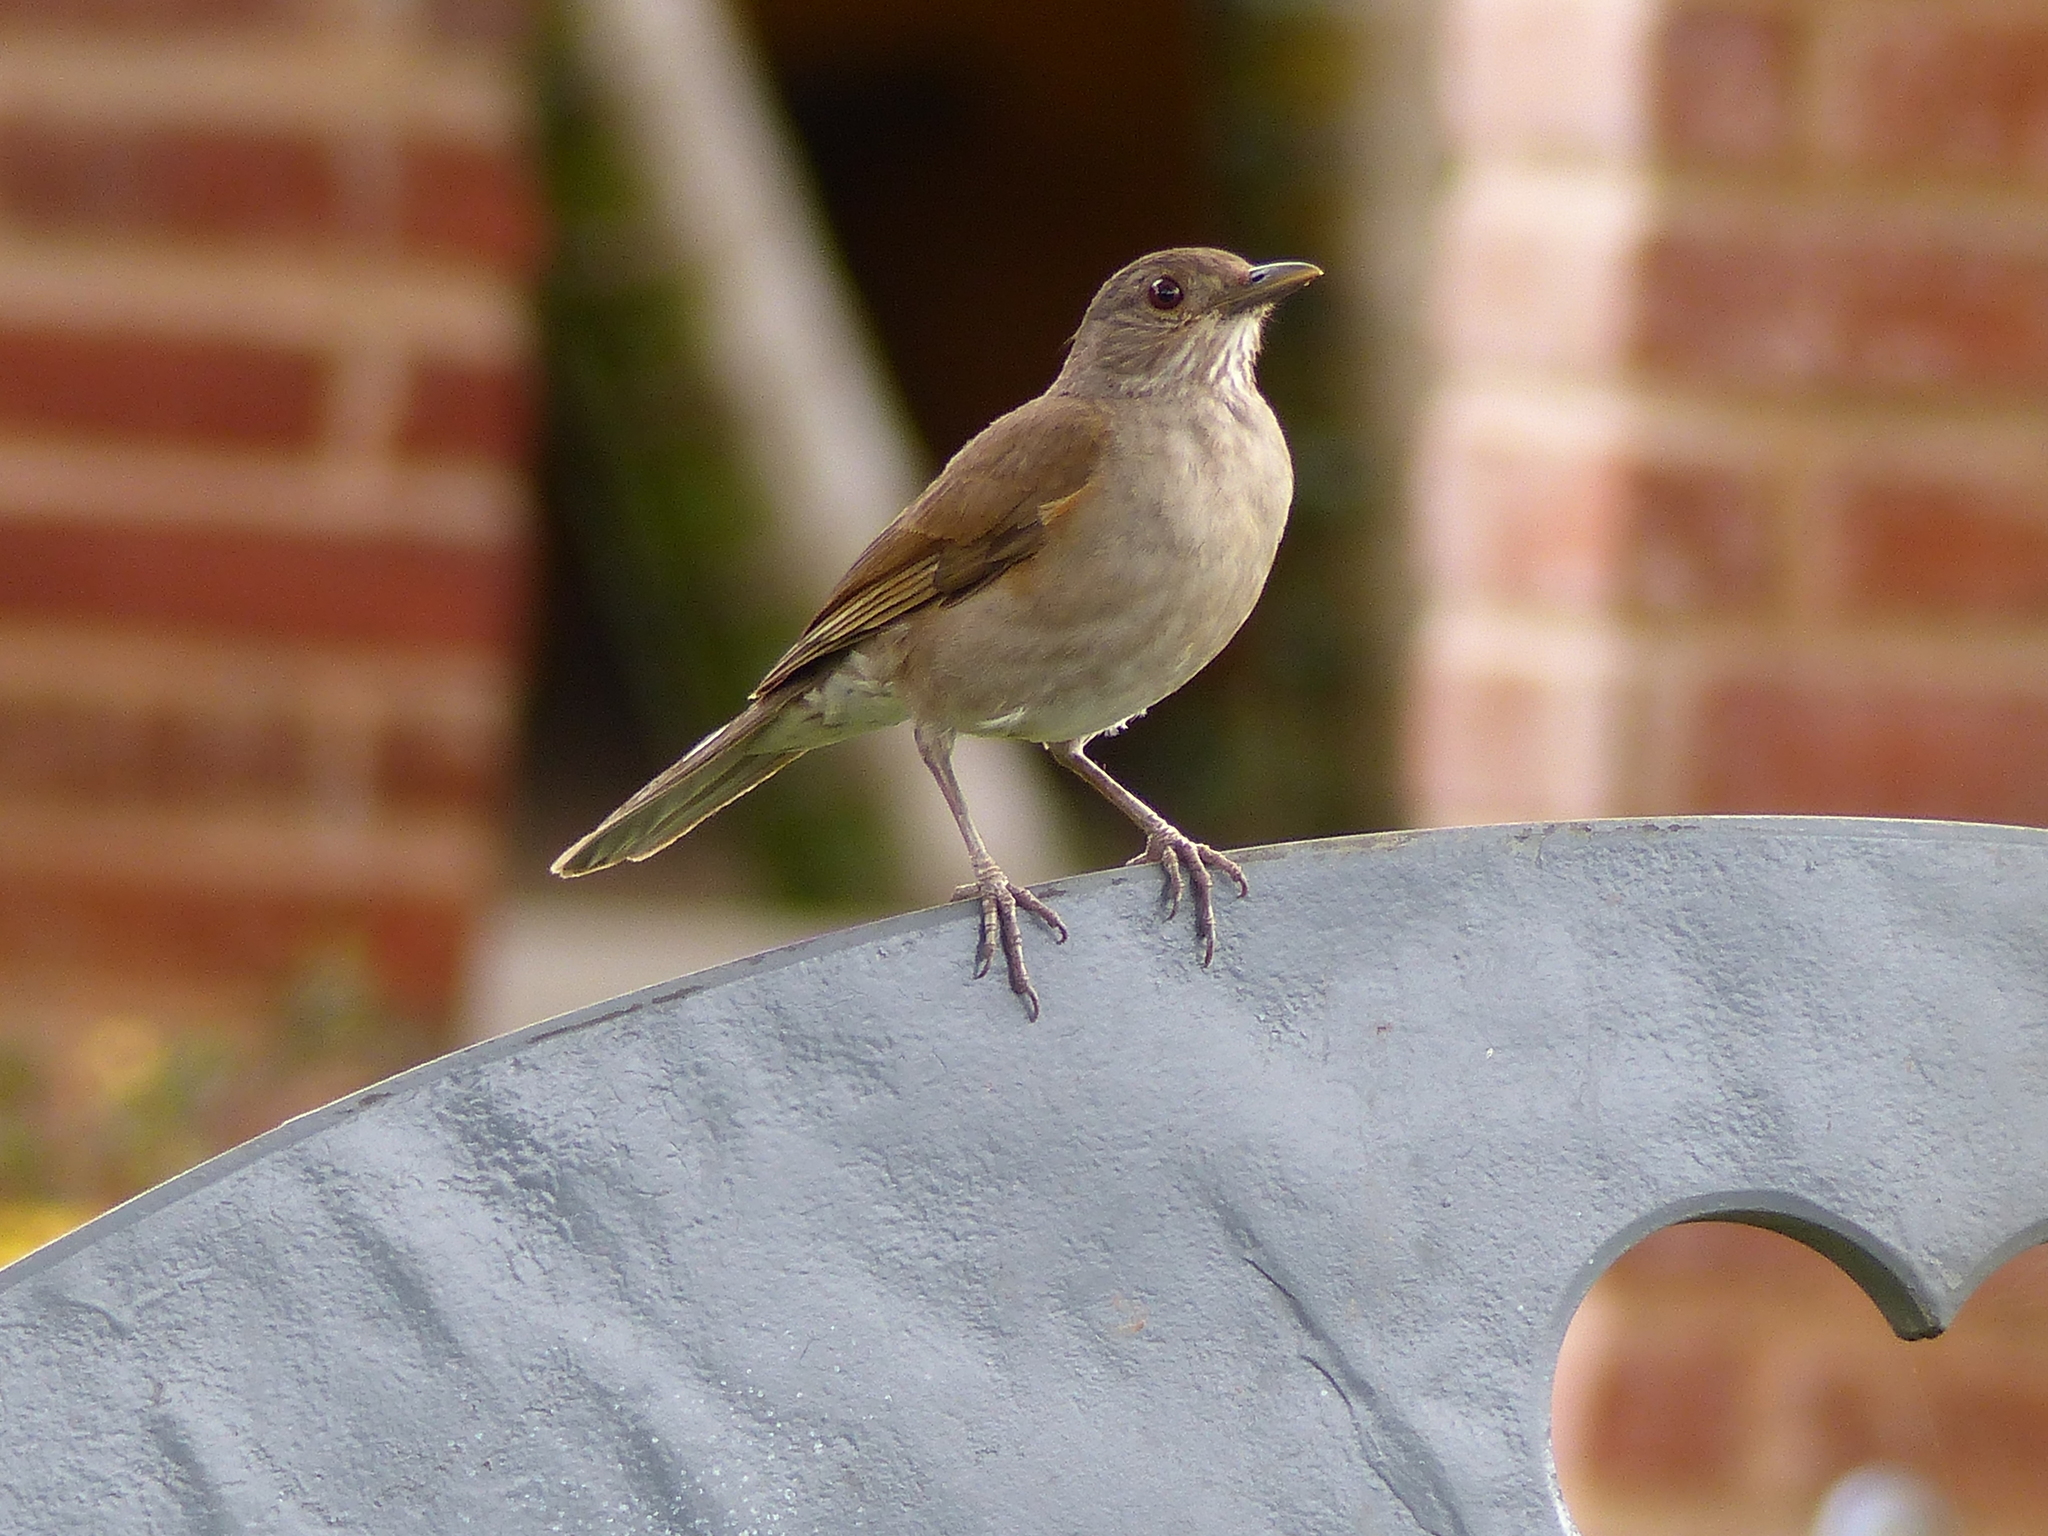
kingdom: Animalia
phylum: Chordata
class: Aves
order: Passeriformes
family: Turdidae
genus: Turdus
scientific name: Turdus leucomelas
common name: Pale-breasted thrush
